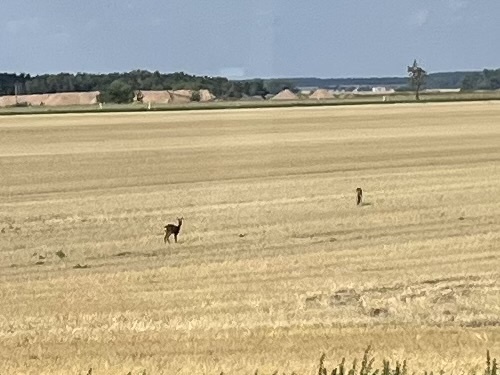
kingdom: Animalia
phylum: Chordata
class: Mammalia
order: Artiodactyla
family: Cervidae
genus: Capreolus
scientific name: Capreolus capreolus
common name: Western roe deer
